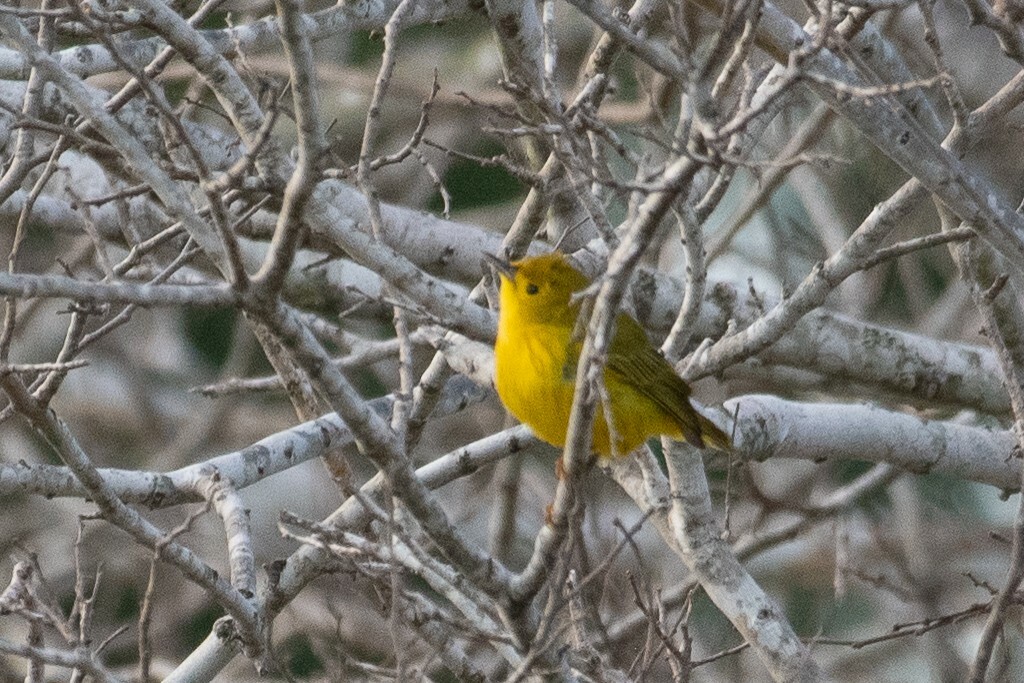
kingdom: Animalia
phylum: Chordata
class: Aves
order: Passeriformes
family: Parulidae
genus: Setophaga
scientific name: Setophaga petechia
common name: Yellow warbler
